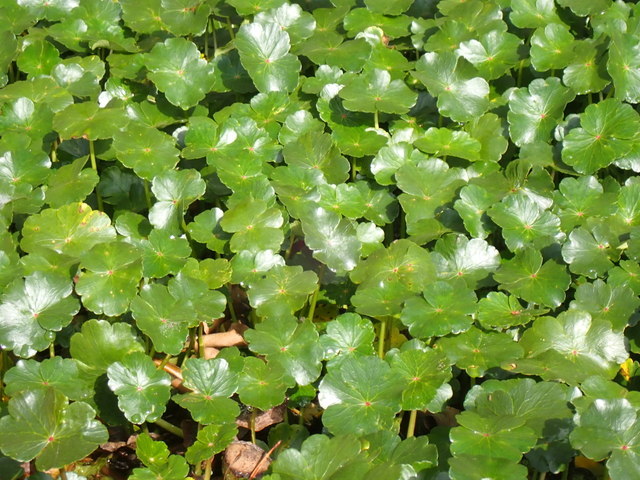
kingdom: Plantae
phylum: Tracheophyta
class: Magnoliopsida
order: Apiales
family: Araliaceae
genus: Hydrocotyle
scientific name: Hydrocotyle ranunculoides
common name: Floating pennywort
